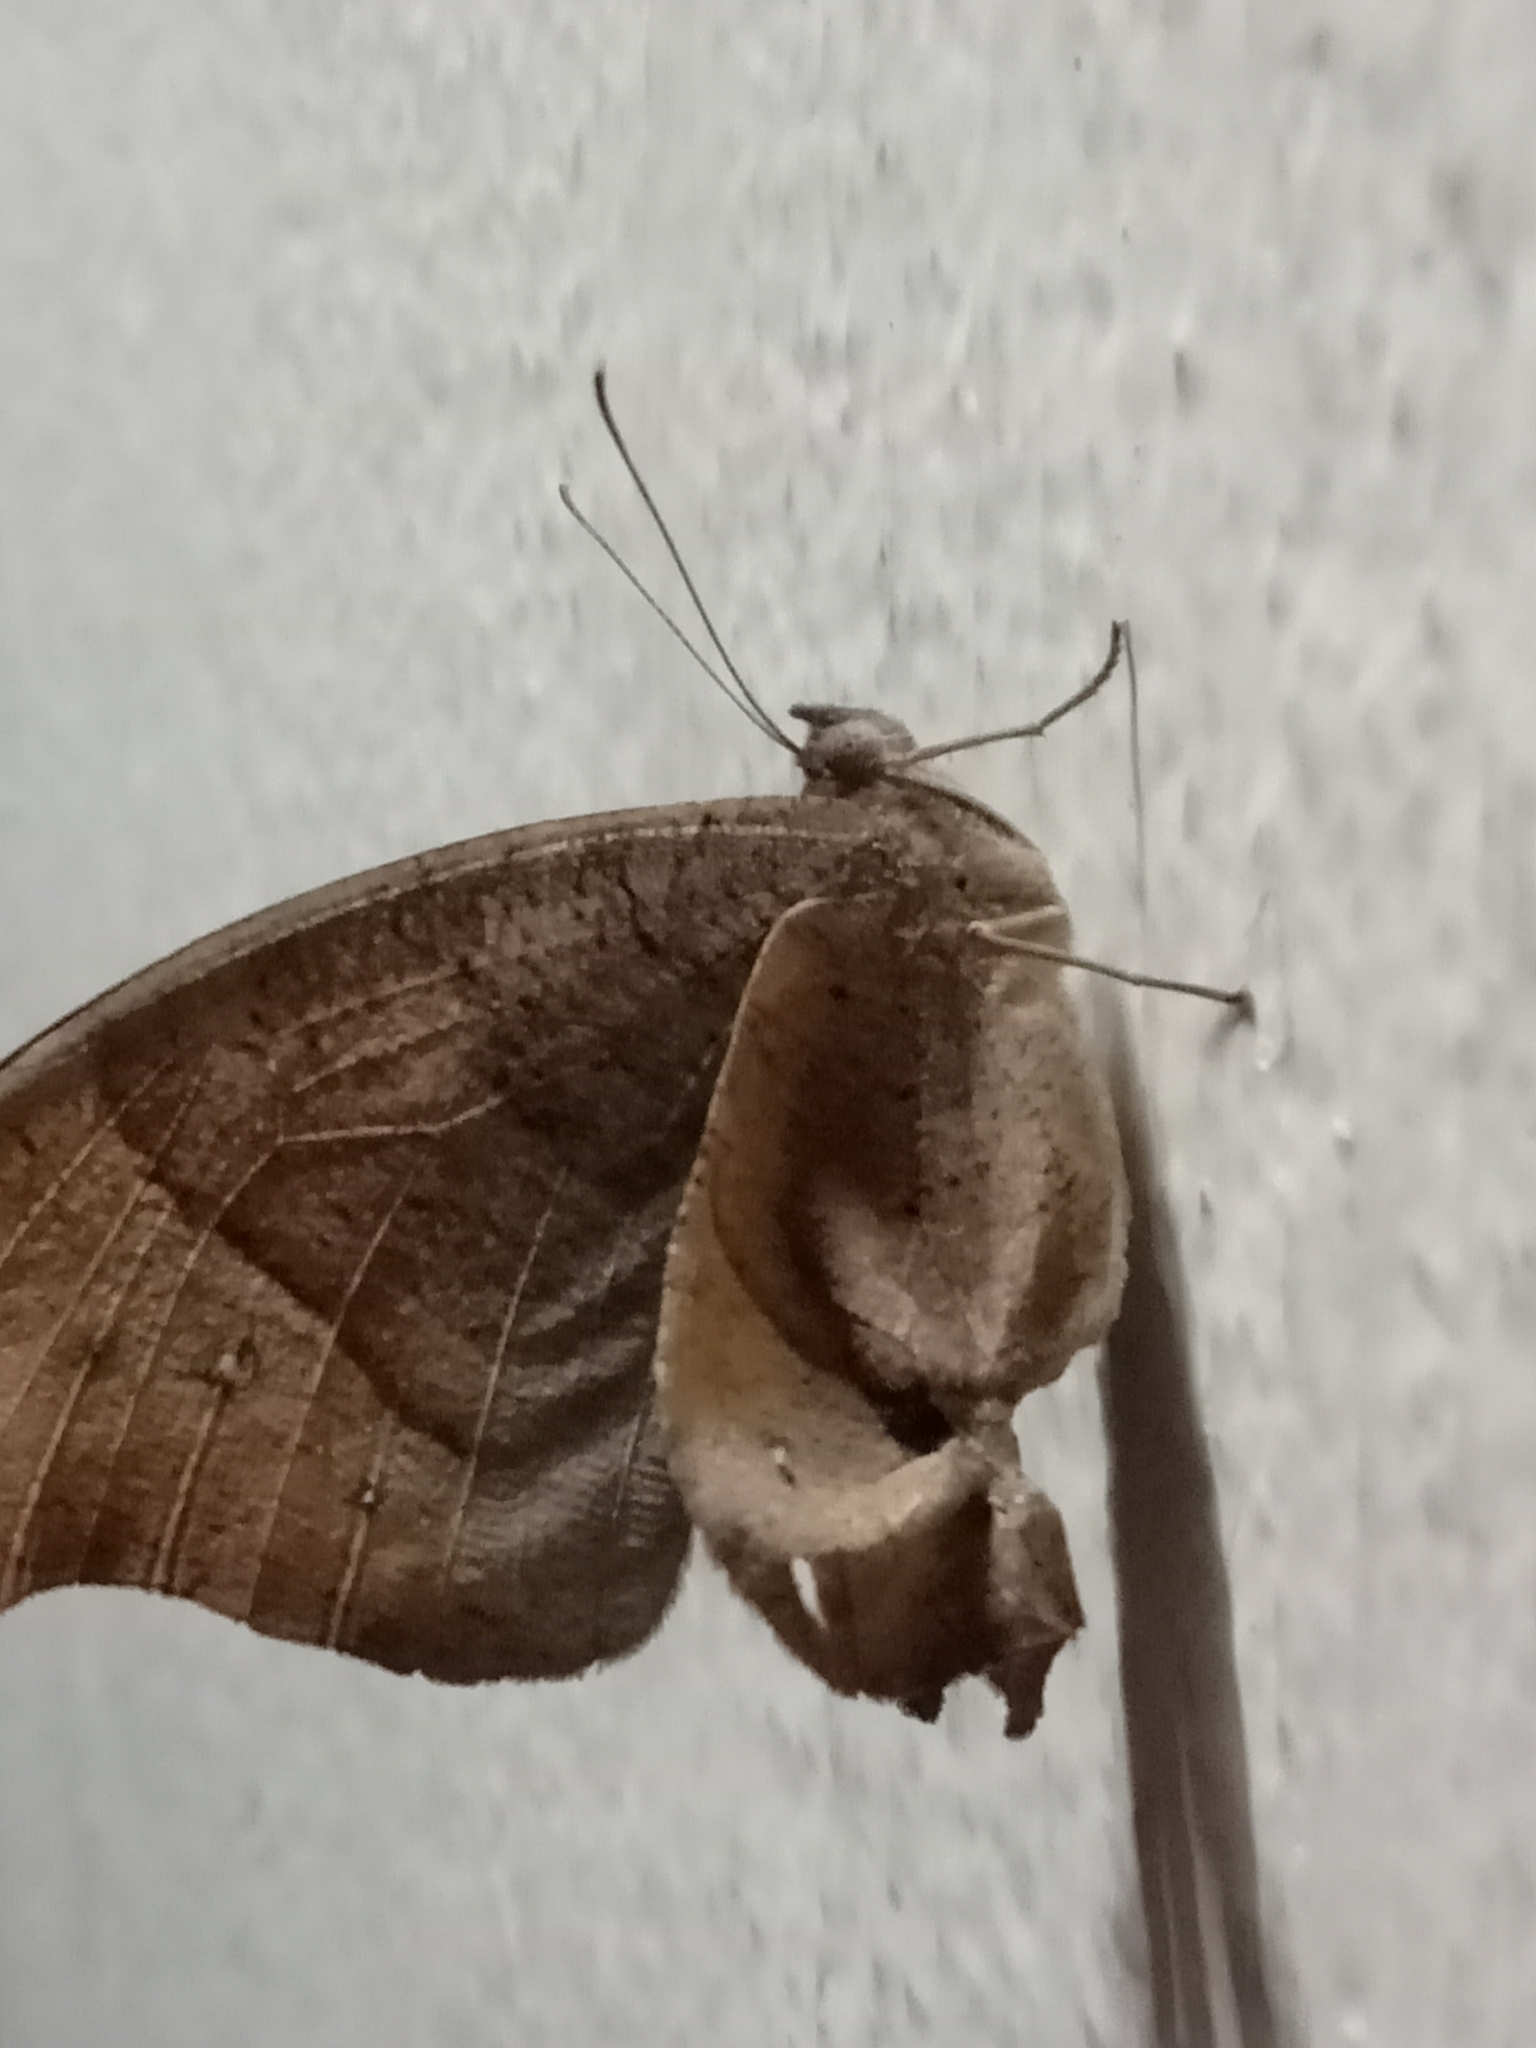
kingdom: Animalia
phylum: Arthropoda
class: Insecta
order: Lepidoptera
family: Nymphalidae
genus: Melanitis
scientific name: Melanitis leda
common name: Twilight brown
